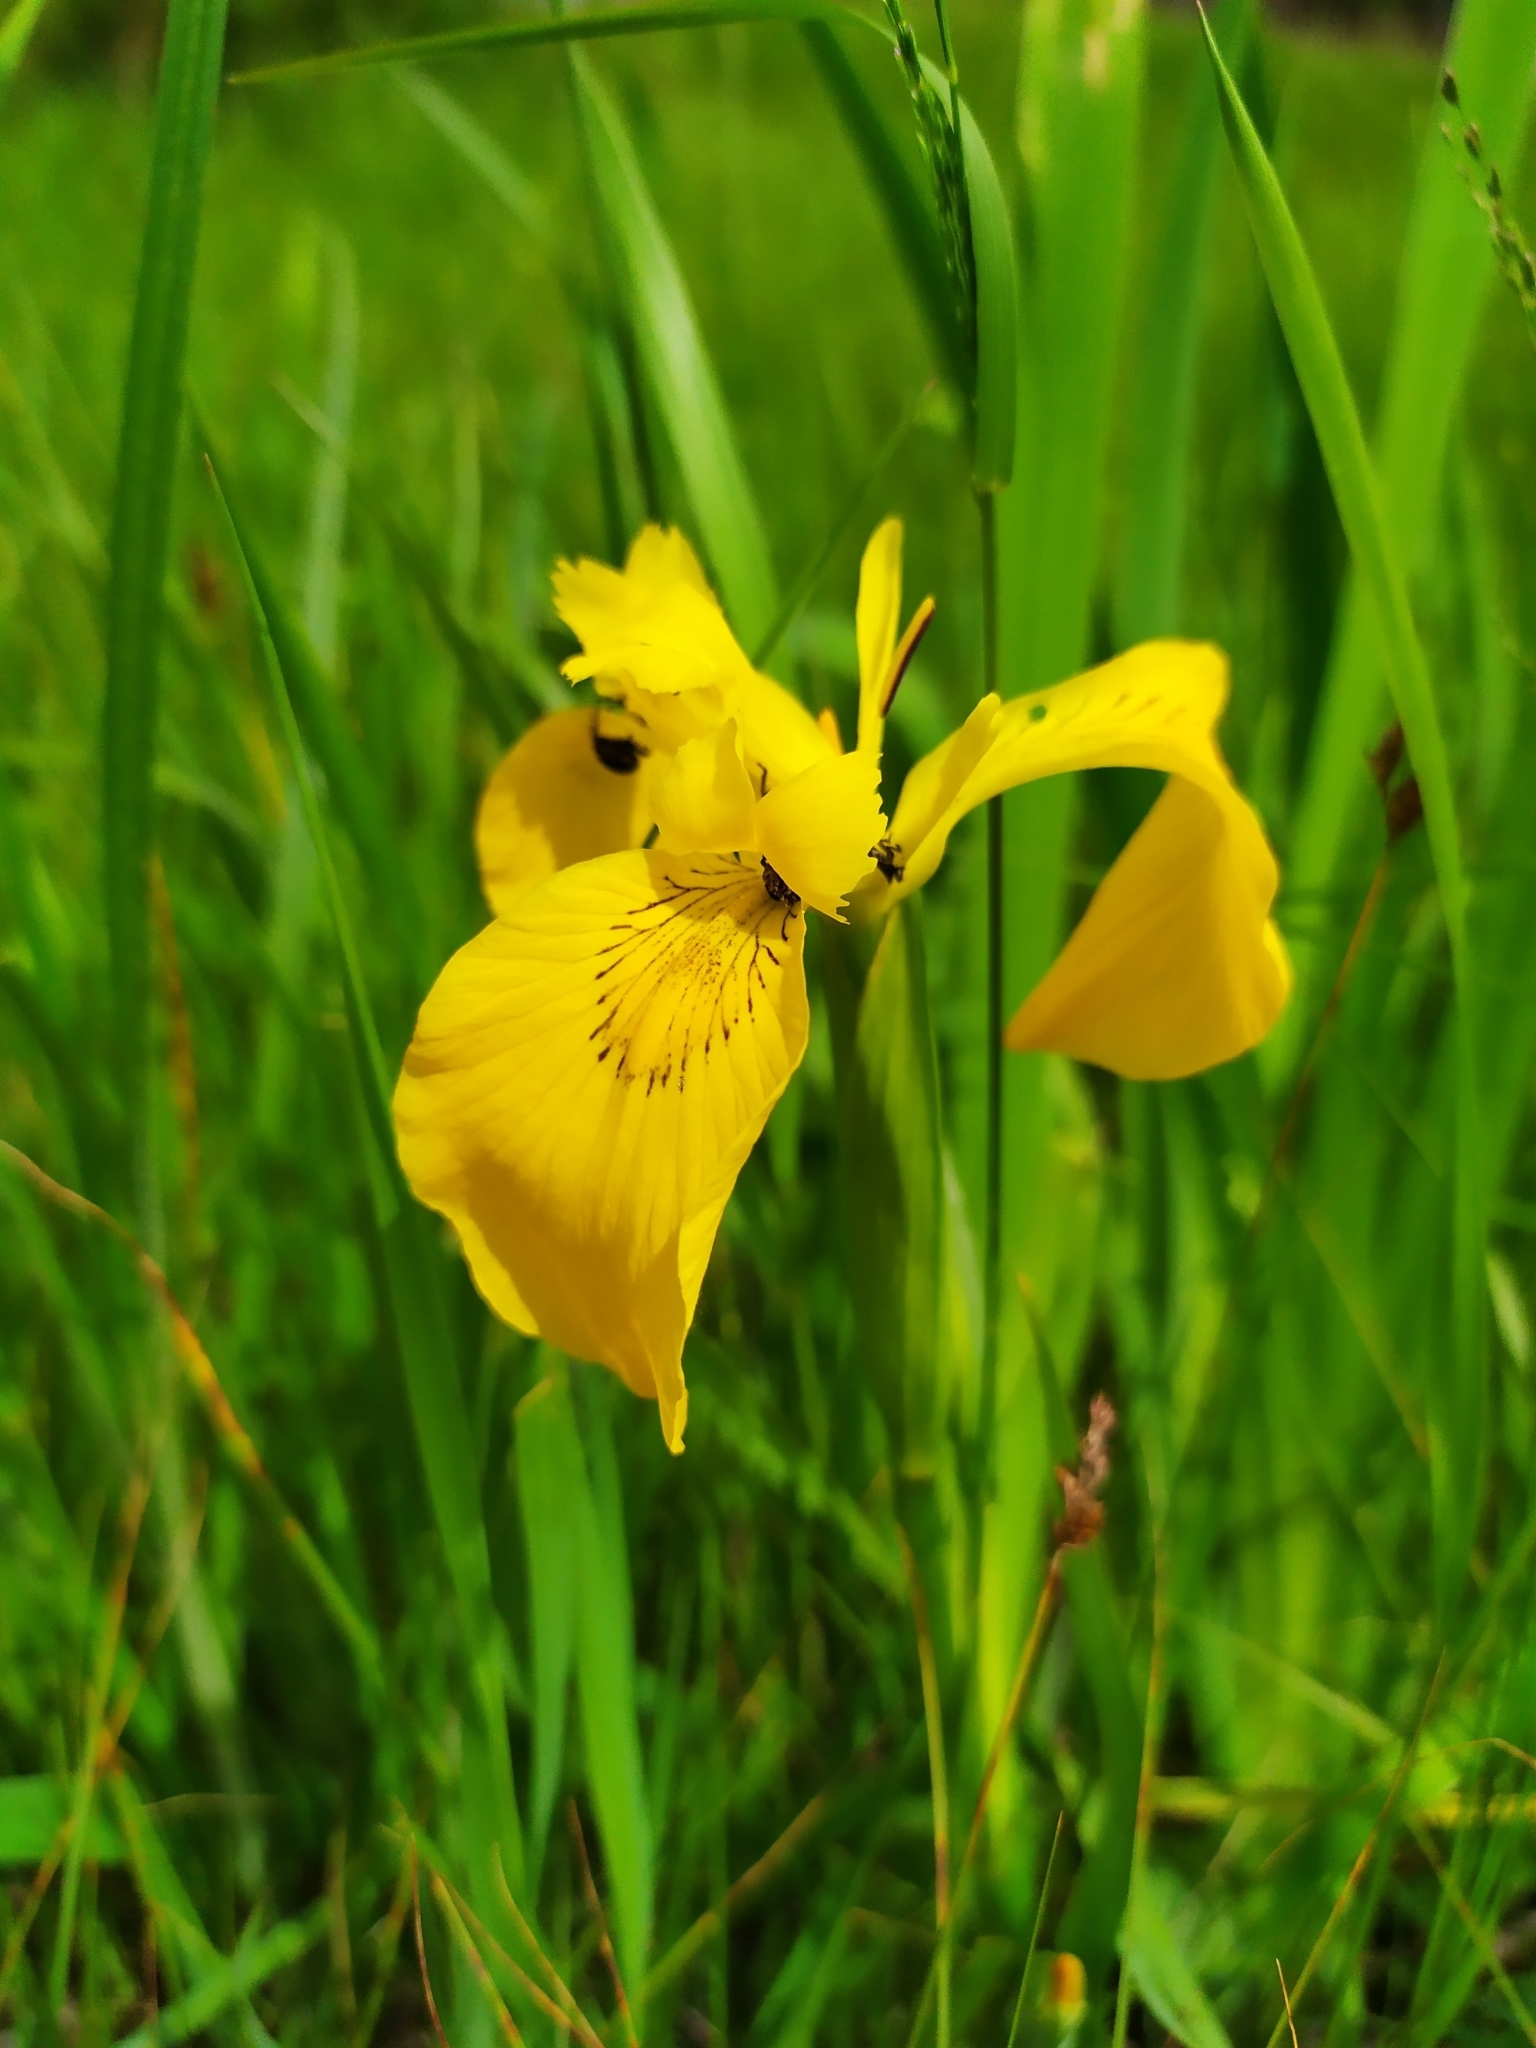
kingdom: Plantae
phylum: Tracheophyta
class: Liliopsida
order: Asparagales
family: Iridaceae
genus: Iris
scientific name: Iris pseudacorus
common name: Yellow flag
